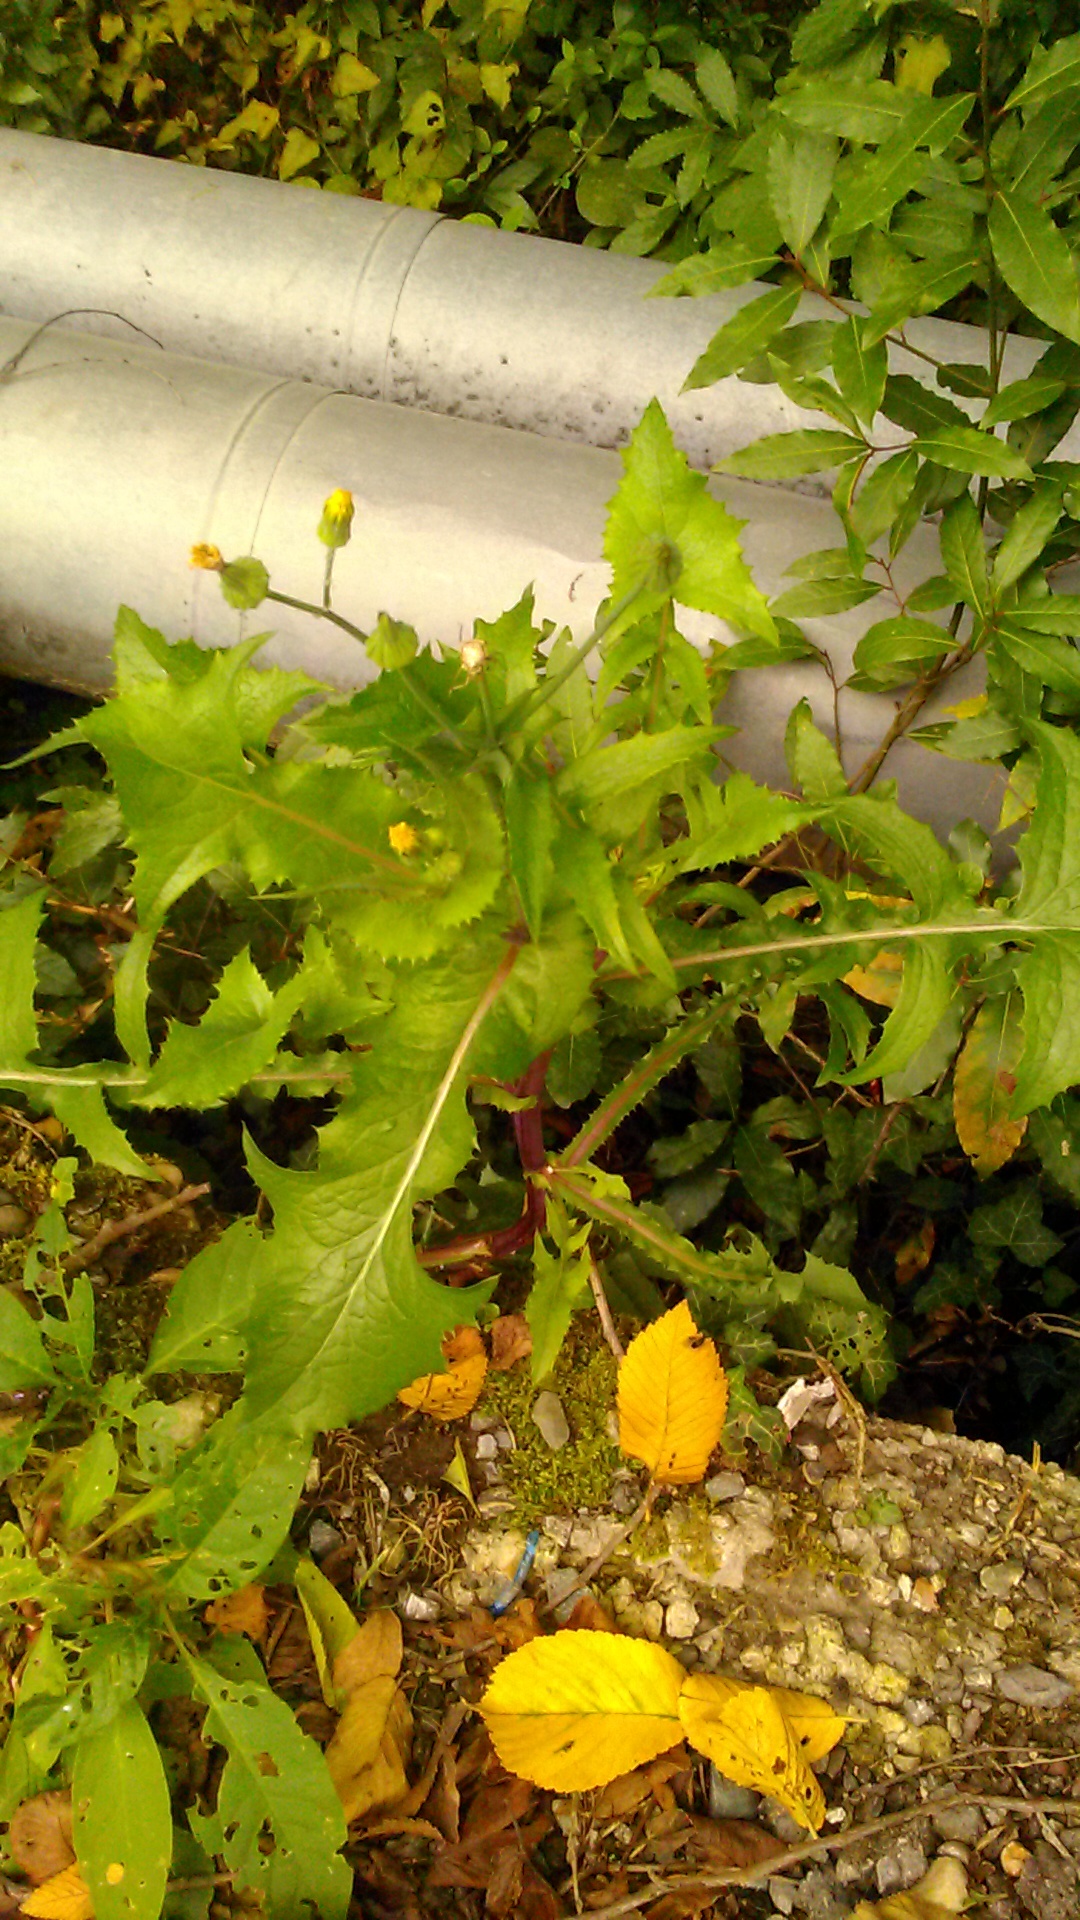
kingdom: Plantae
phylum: Tracheophyta
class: Magnoliopsida
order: Asterales
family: Asteraceae
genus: Sonchus
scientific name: Sonchus asper
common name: Prickly sow-thistle
